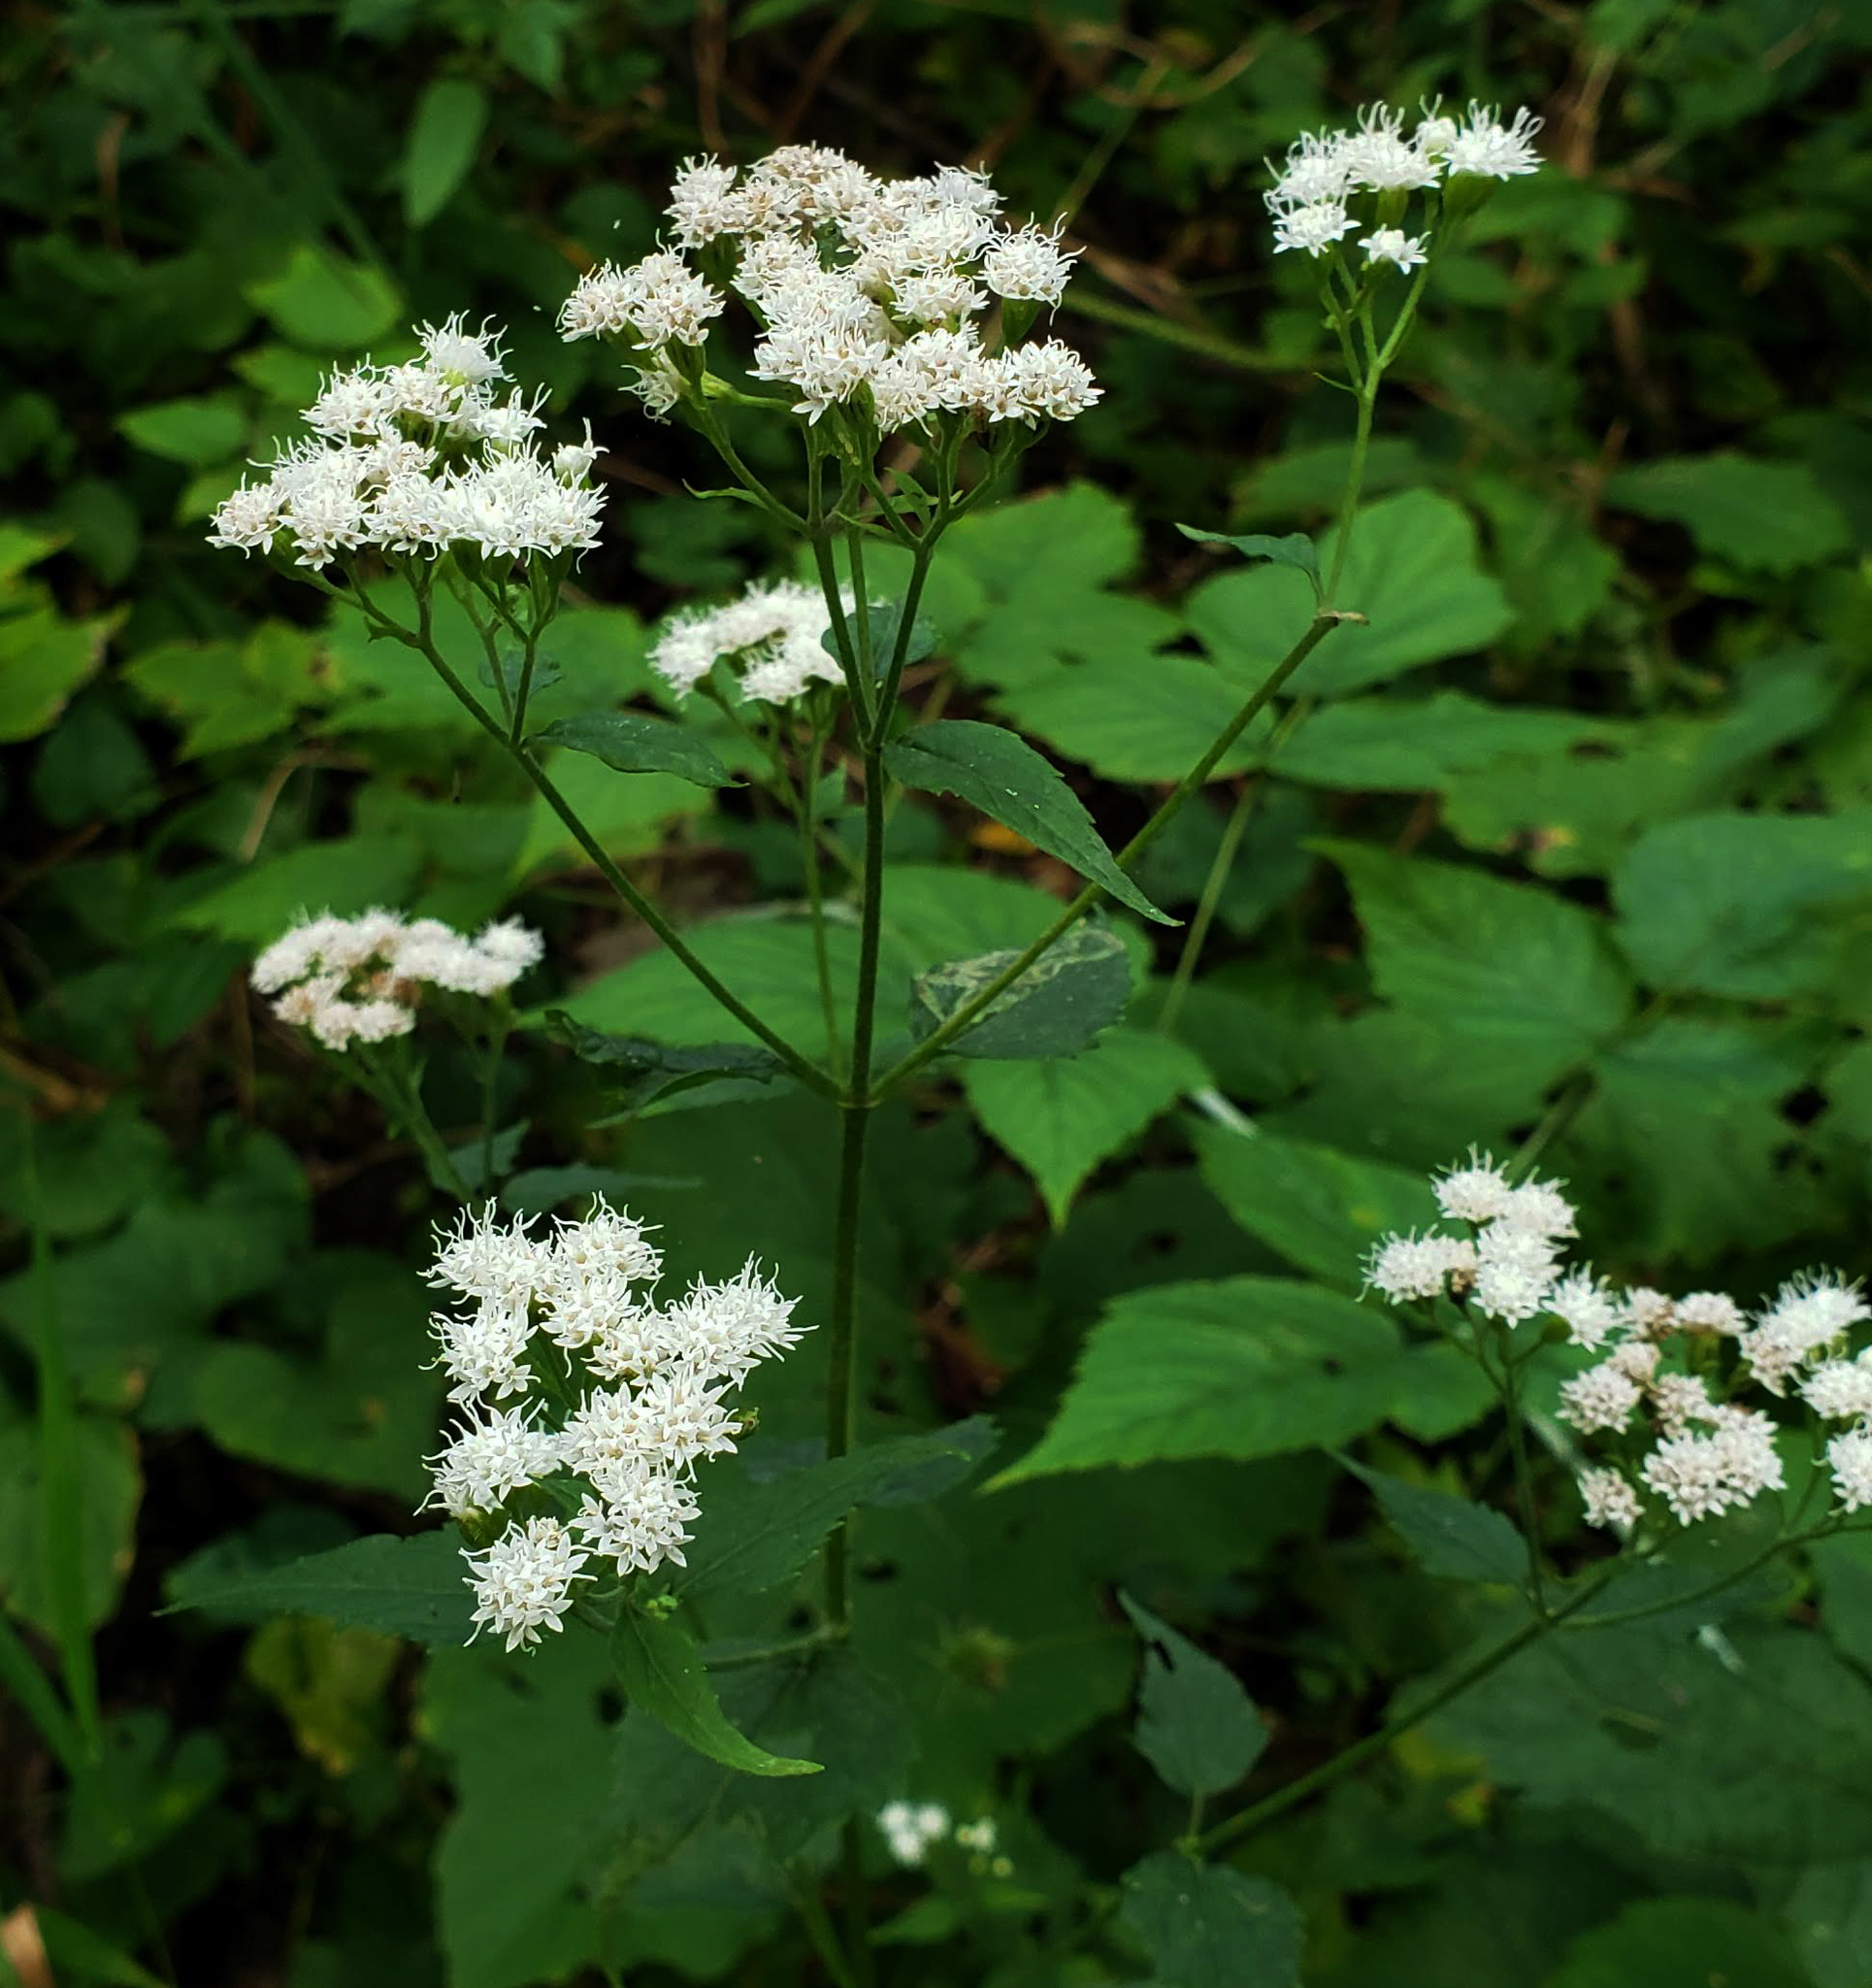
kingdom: Plantae
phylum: Tracheophyta
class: Magnoliopsida
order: Asterales
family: Asteraceae
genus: Ageratina
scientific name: Ageratina altissima
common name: White snakeroot
